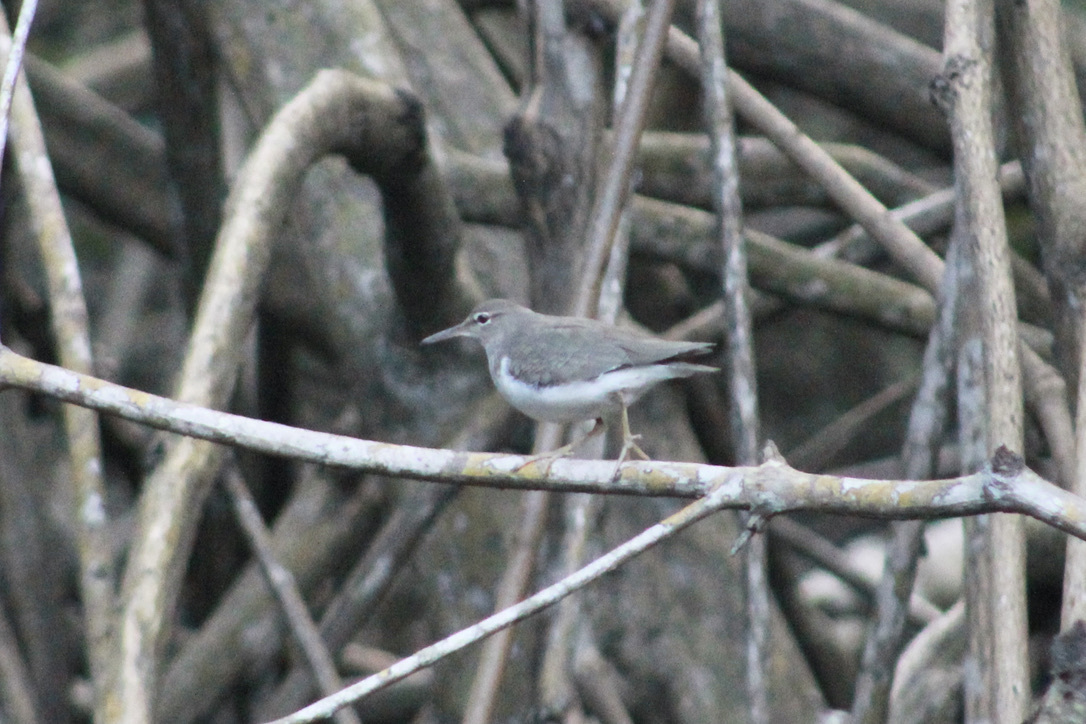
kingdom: Animalia
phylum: Chordata
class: Aves
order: Charadriiformes
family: Scolopacidae
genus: Actitis
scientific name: Actitis macularius
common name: Spotted sandpiper
